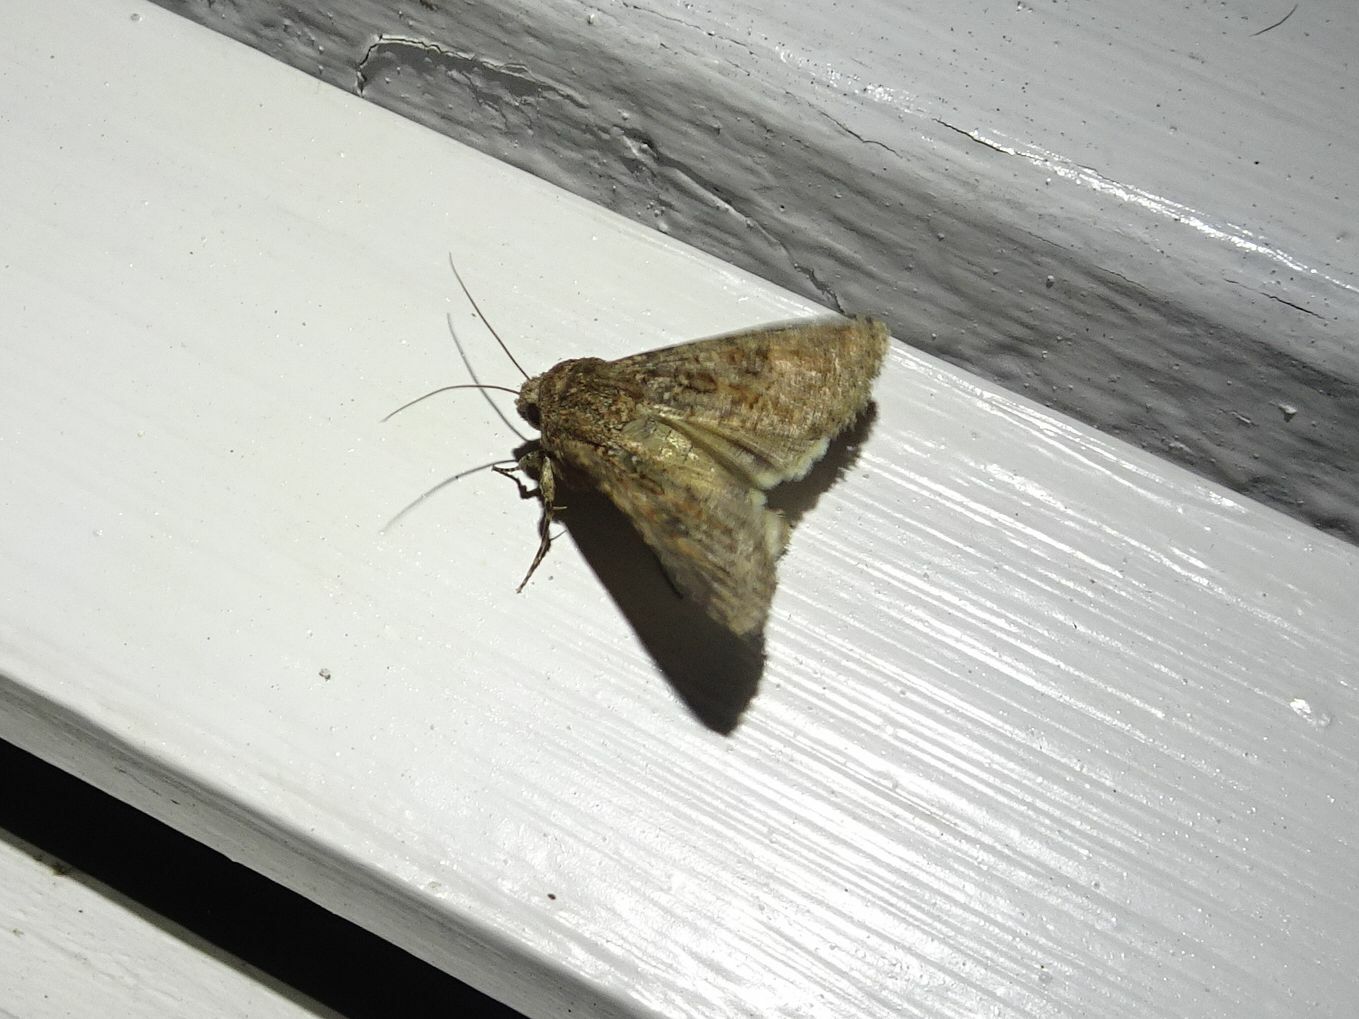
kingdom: Animalia
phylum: Arthropoda
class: Insecta
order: Lepidoptera
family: Erebidae
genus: Pandesma
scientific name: Pandesma robusta
